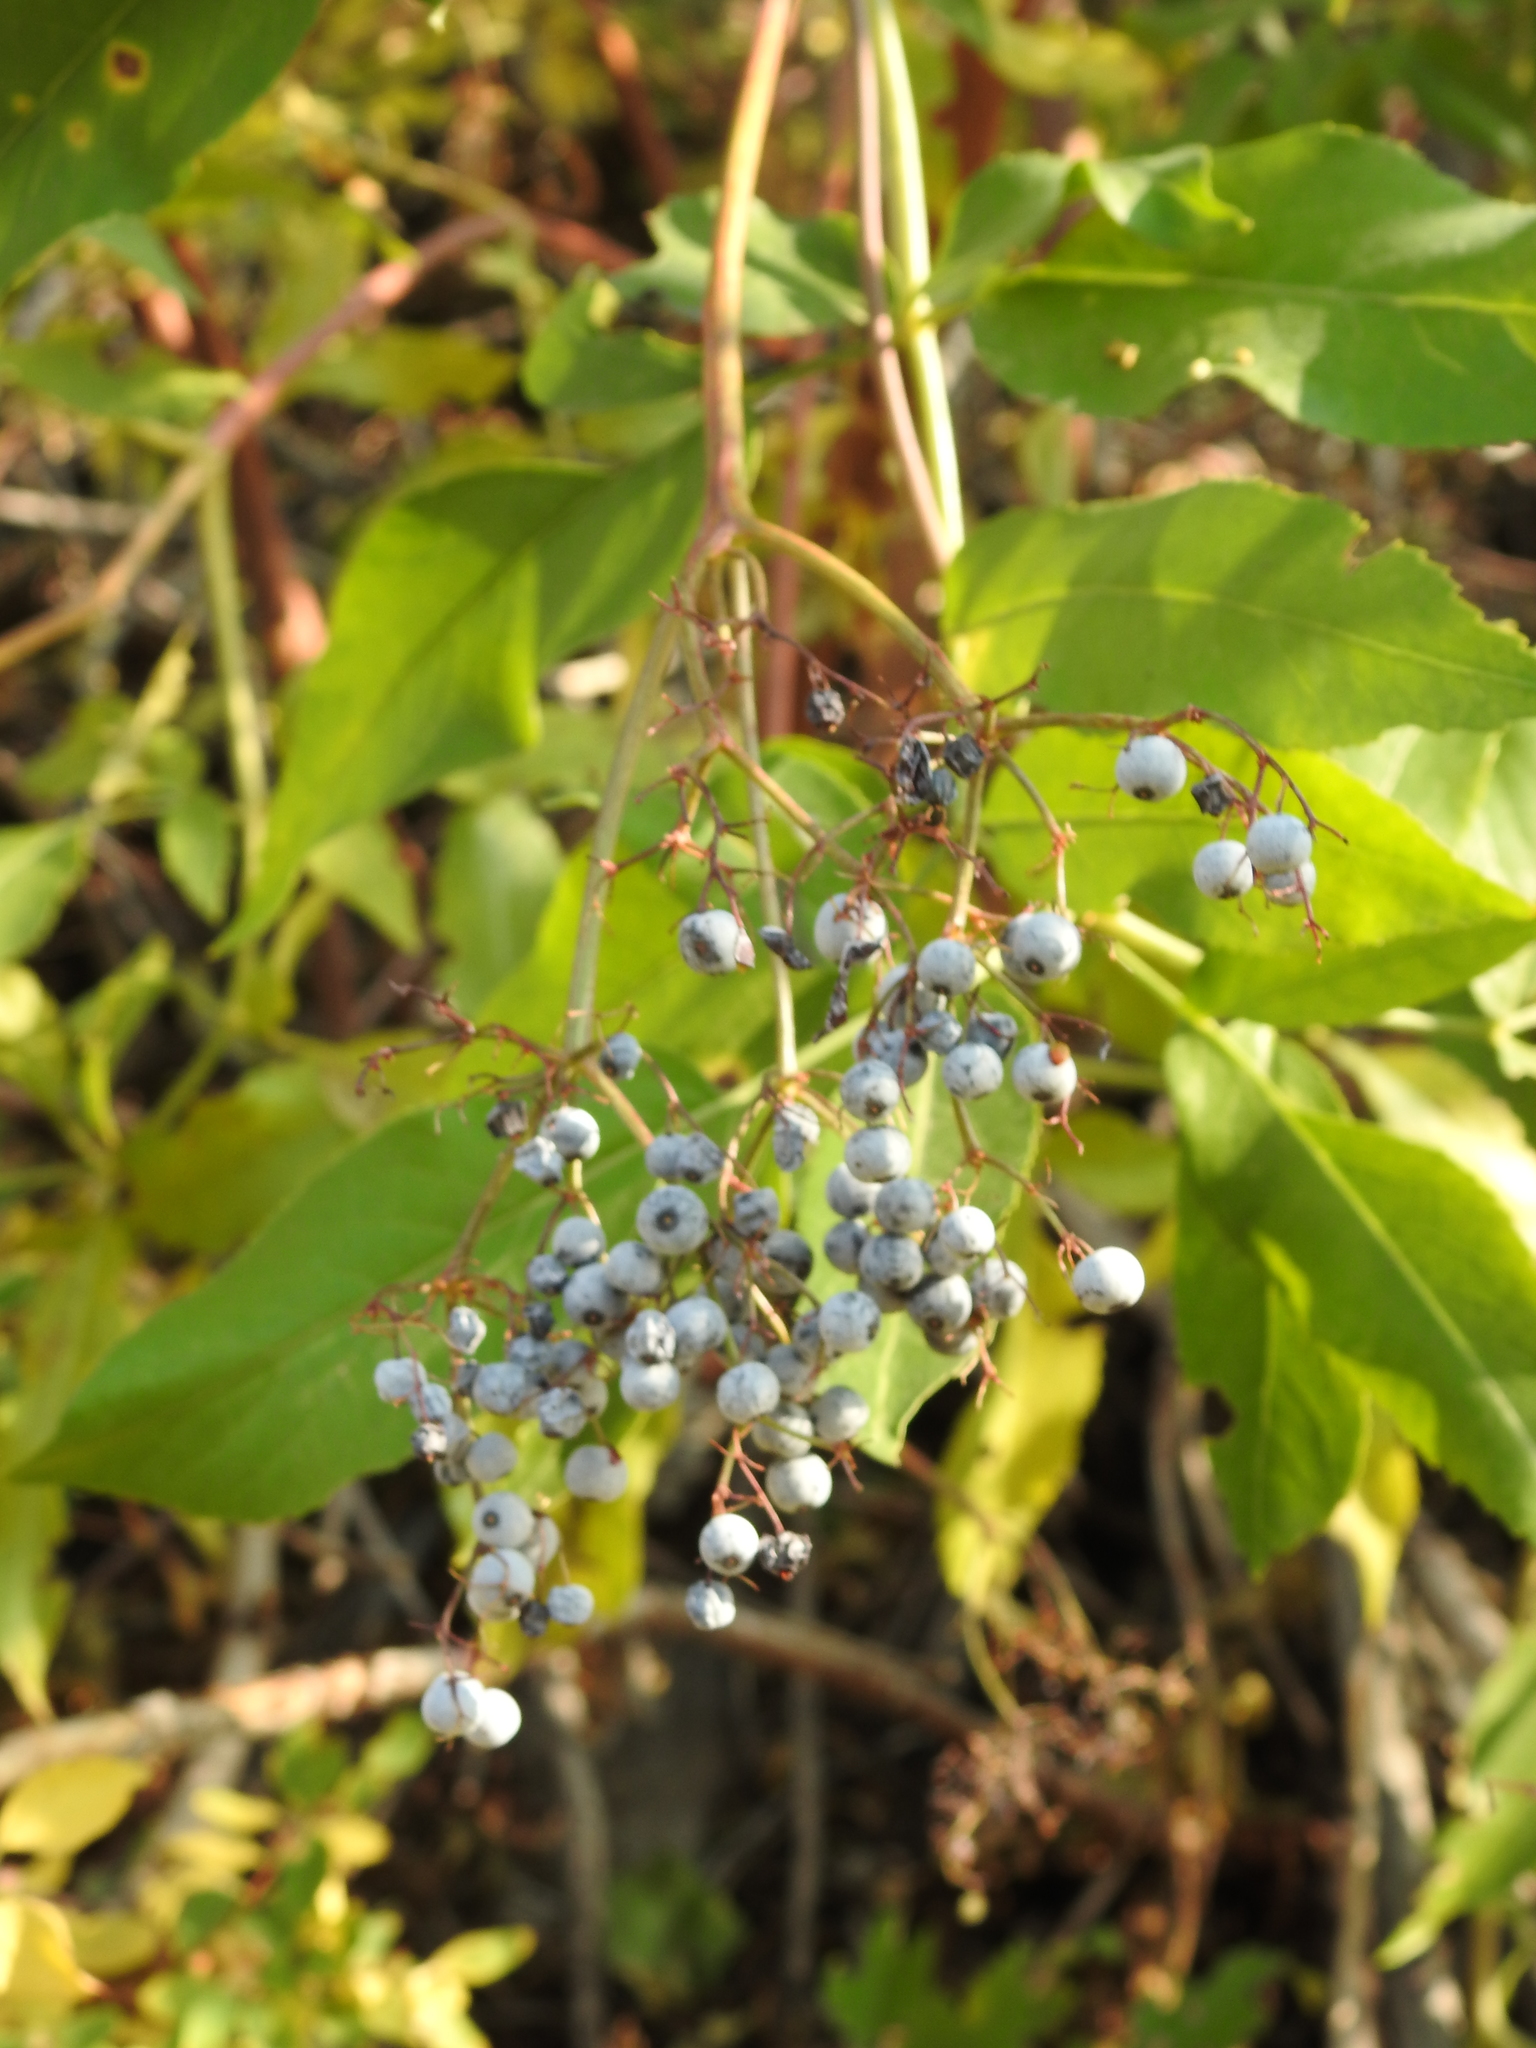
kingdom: Plantae
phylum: Tracheophyta
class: Magnoliopsida
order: Dipsacales
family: Viburnaceae
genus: Sambucus
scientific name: Sambucus cerulea
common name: Blue elder
